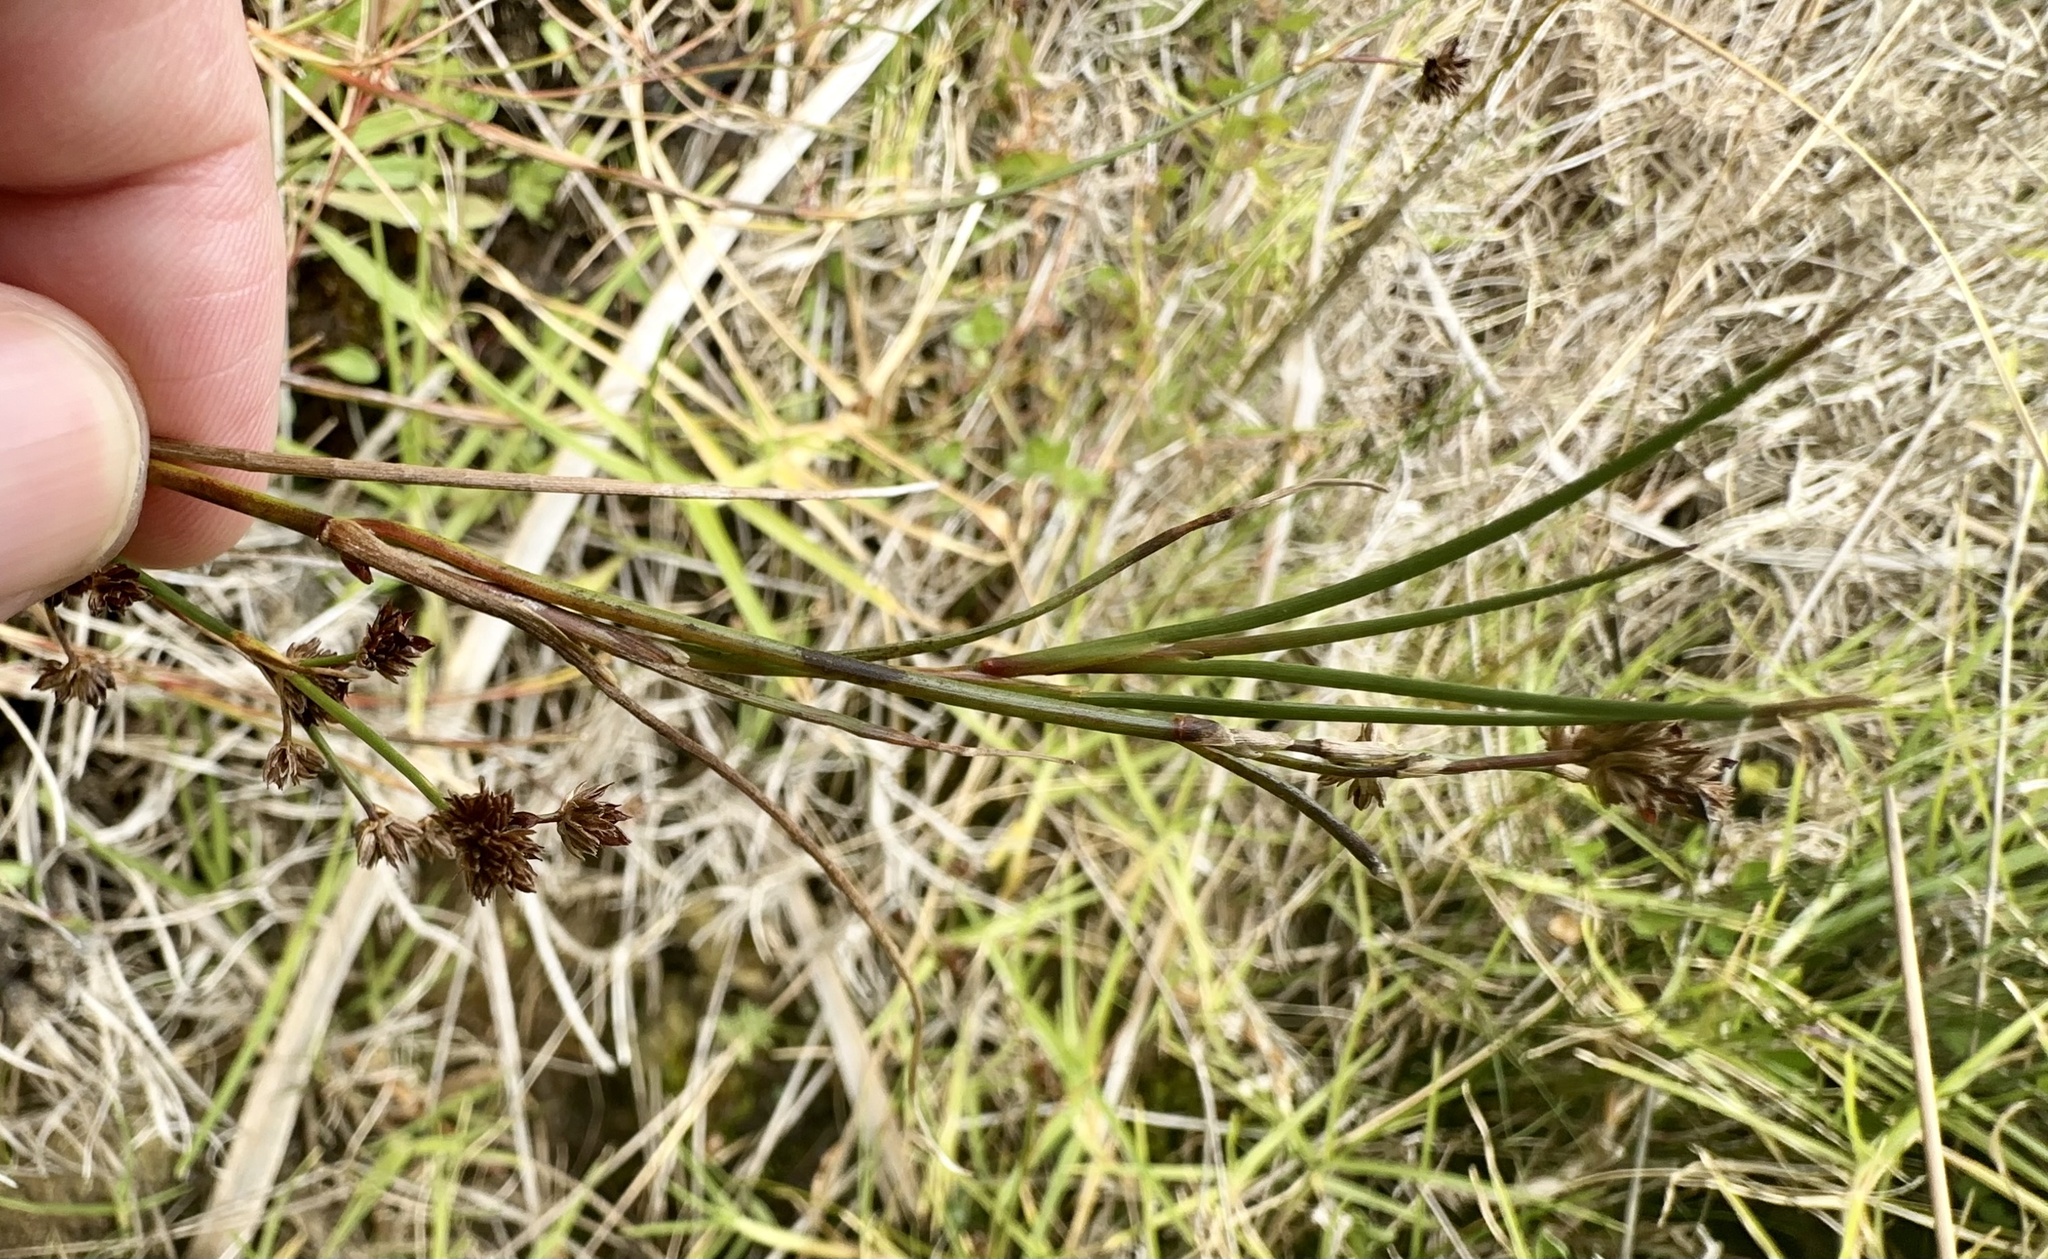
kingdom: Plantae
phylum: Tracheophyta
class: Liliopsida
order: Poales
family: Juncaceae
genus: Juncus
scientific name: Juncus articulatus
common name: Jointed rush
